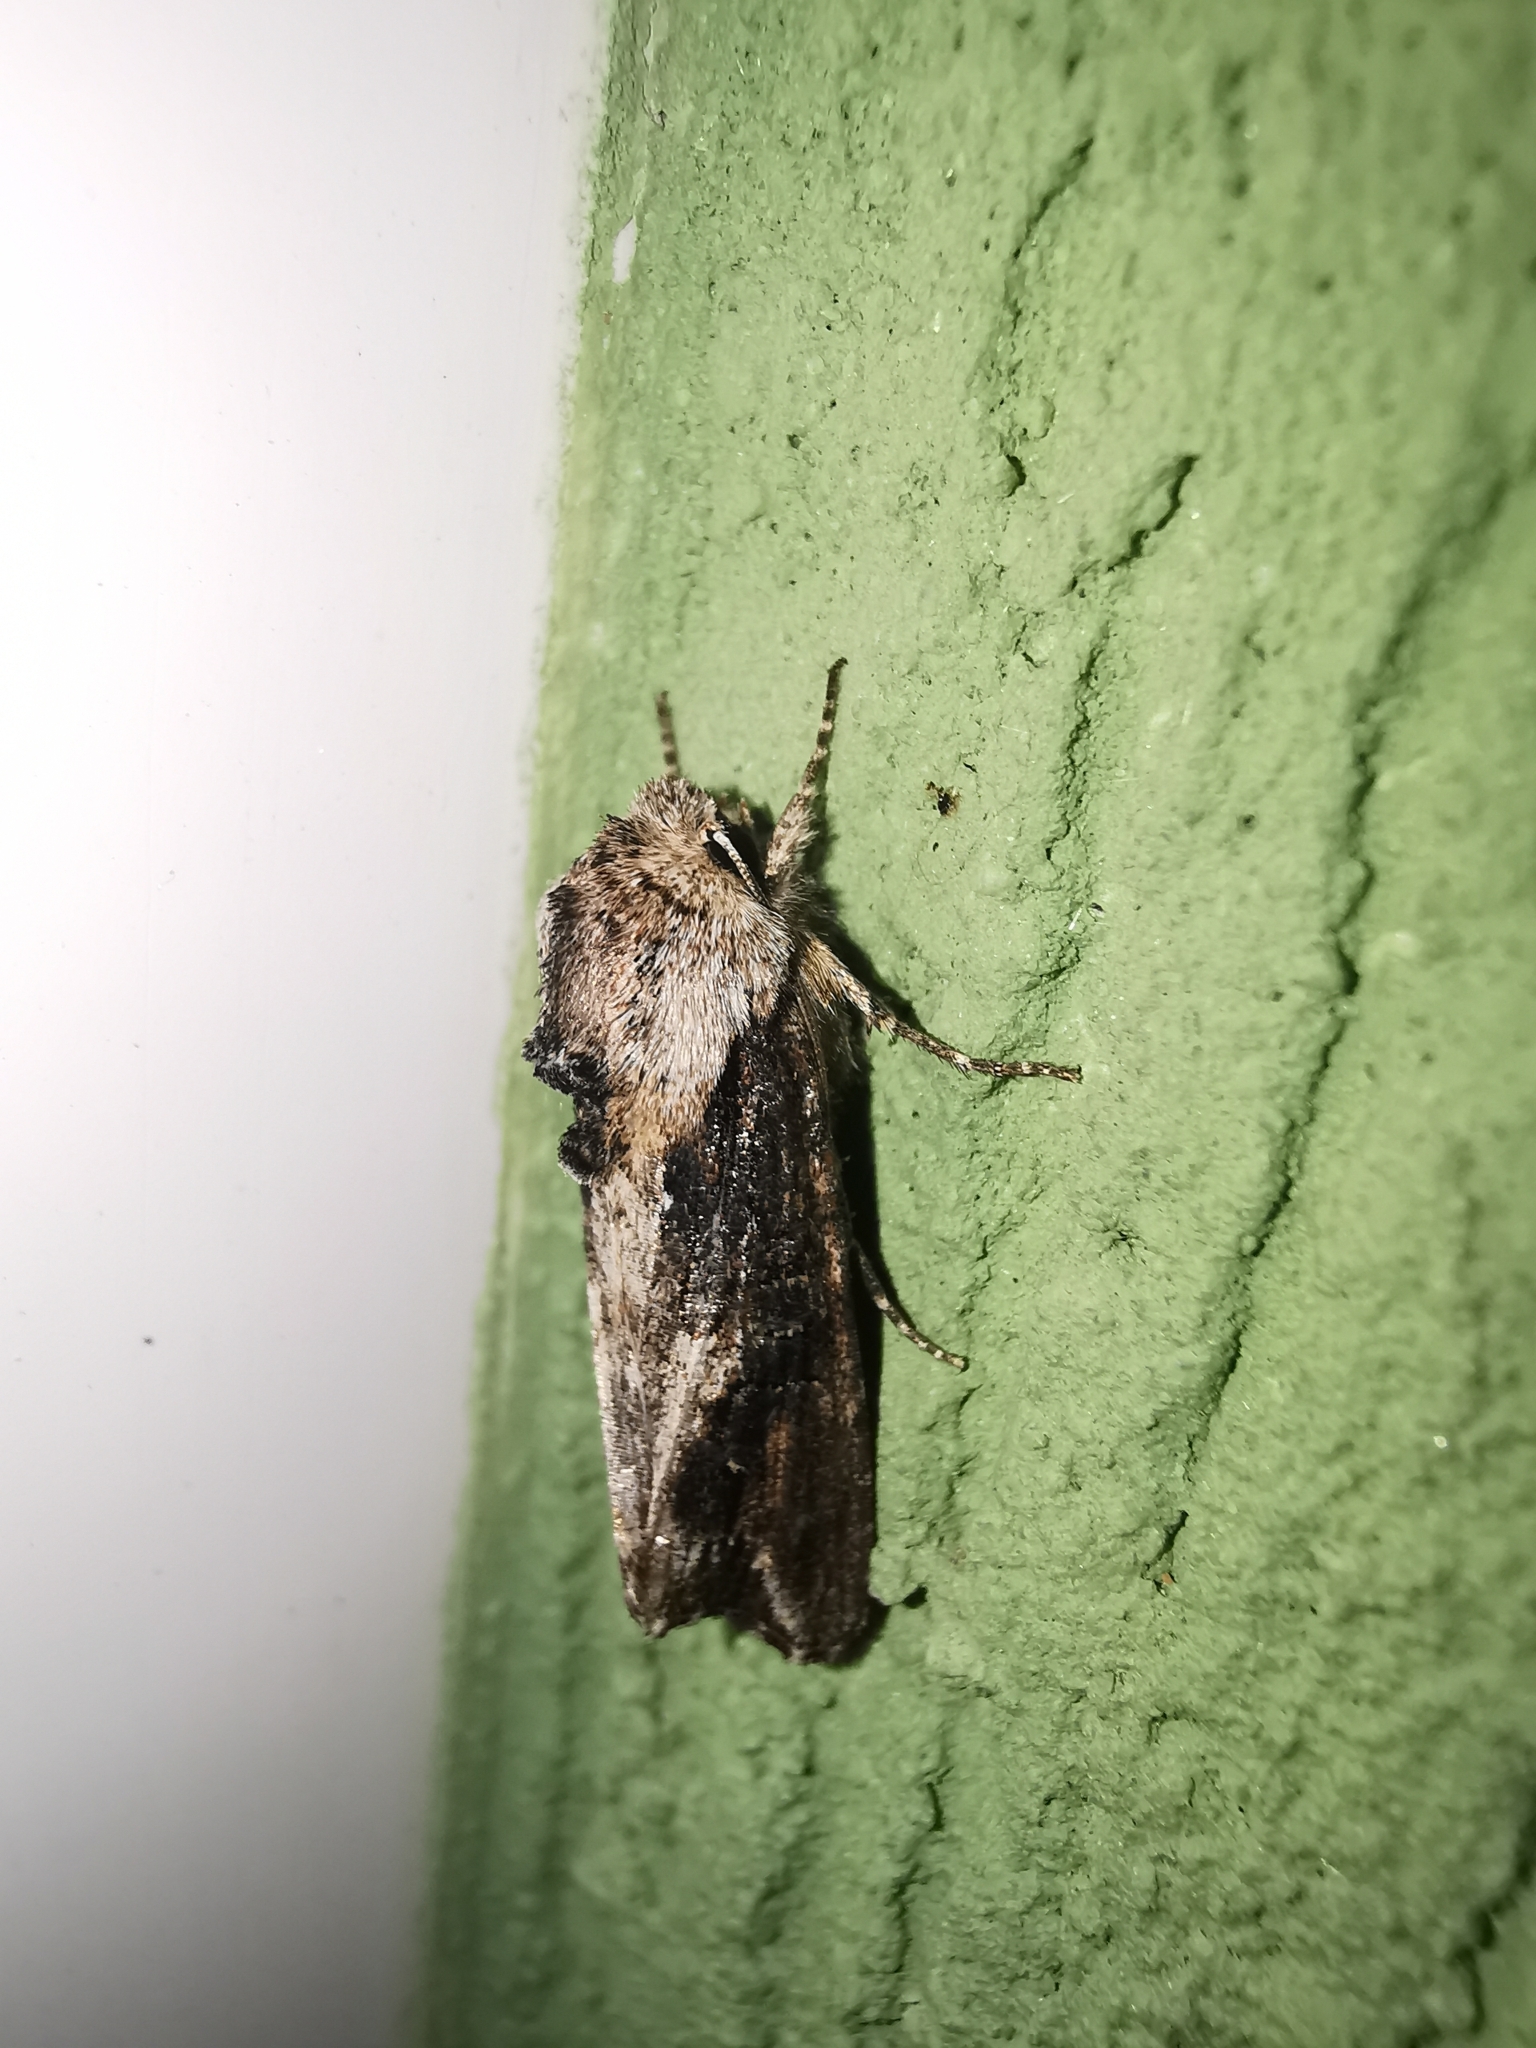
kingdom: Animalia
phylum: Arthropoda
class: Insecta
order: Lepidoptera
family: Noctuidae
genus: Egira
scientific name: Egira conspicillaris
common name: Silver cloud
